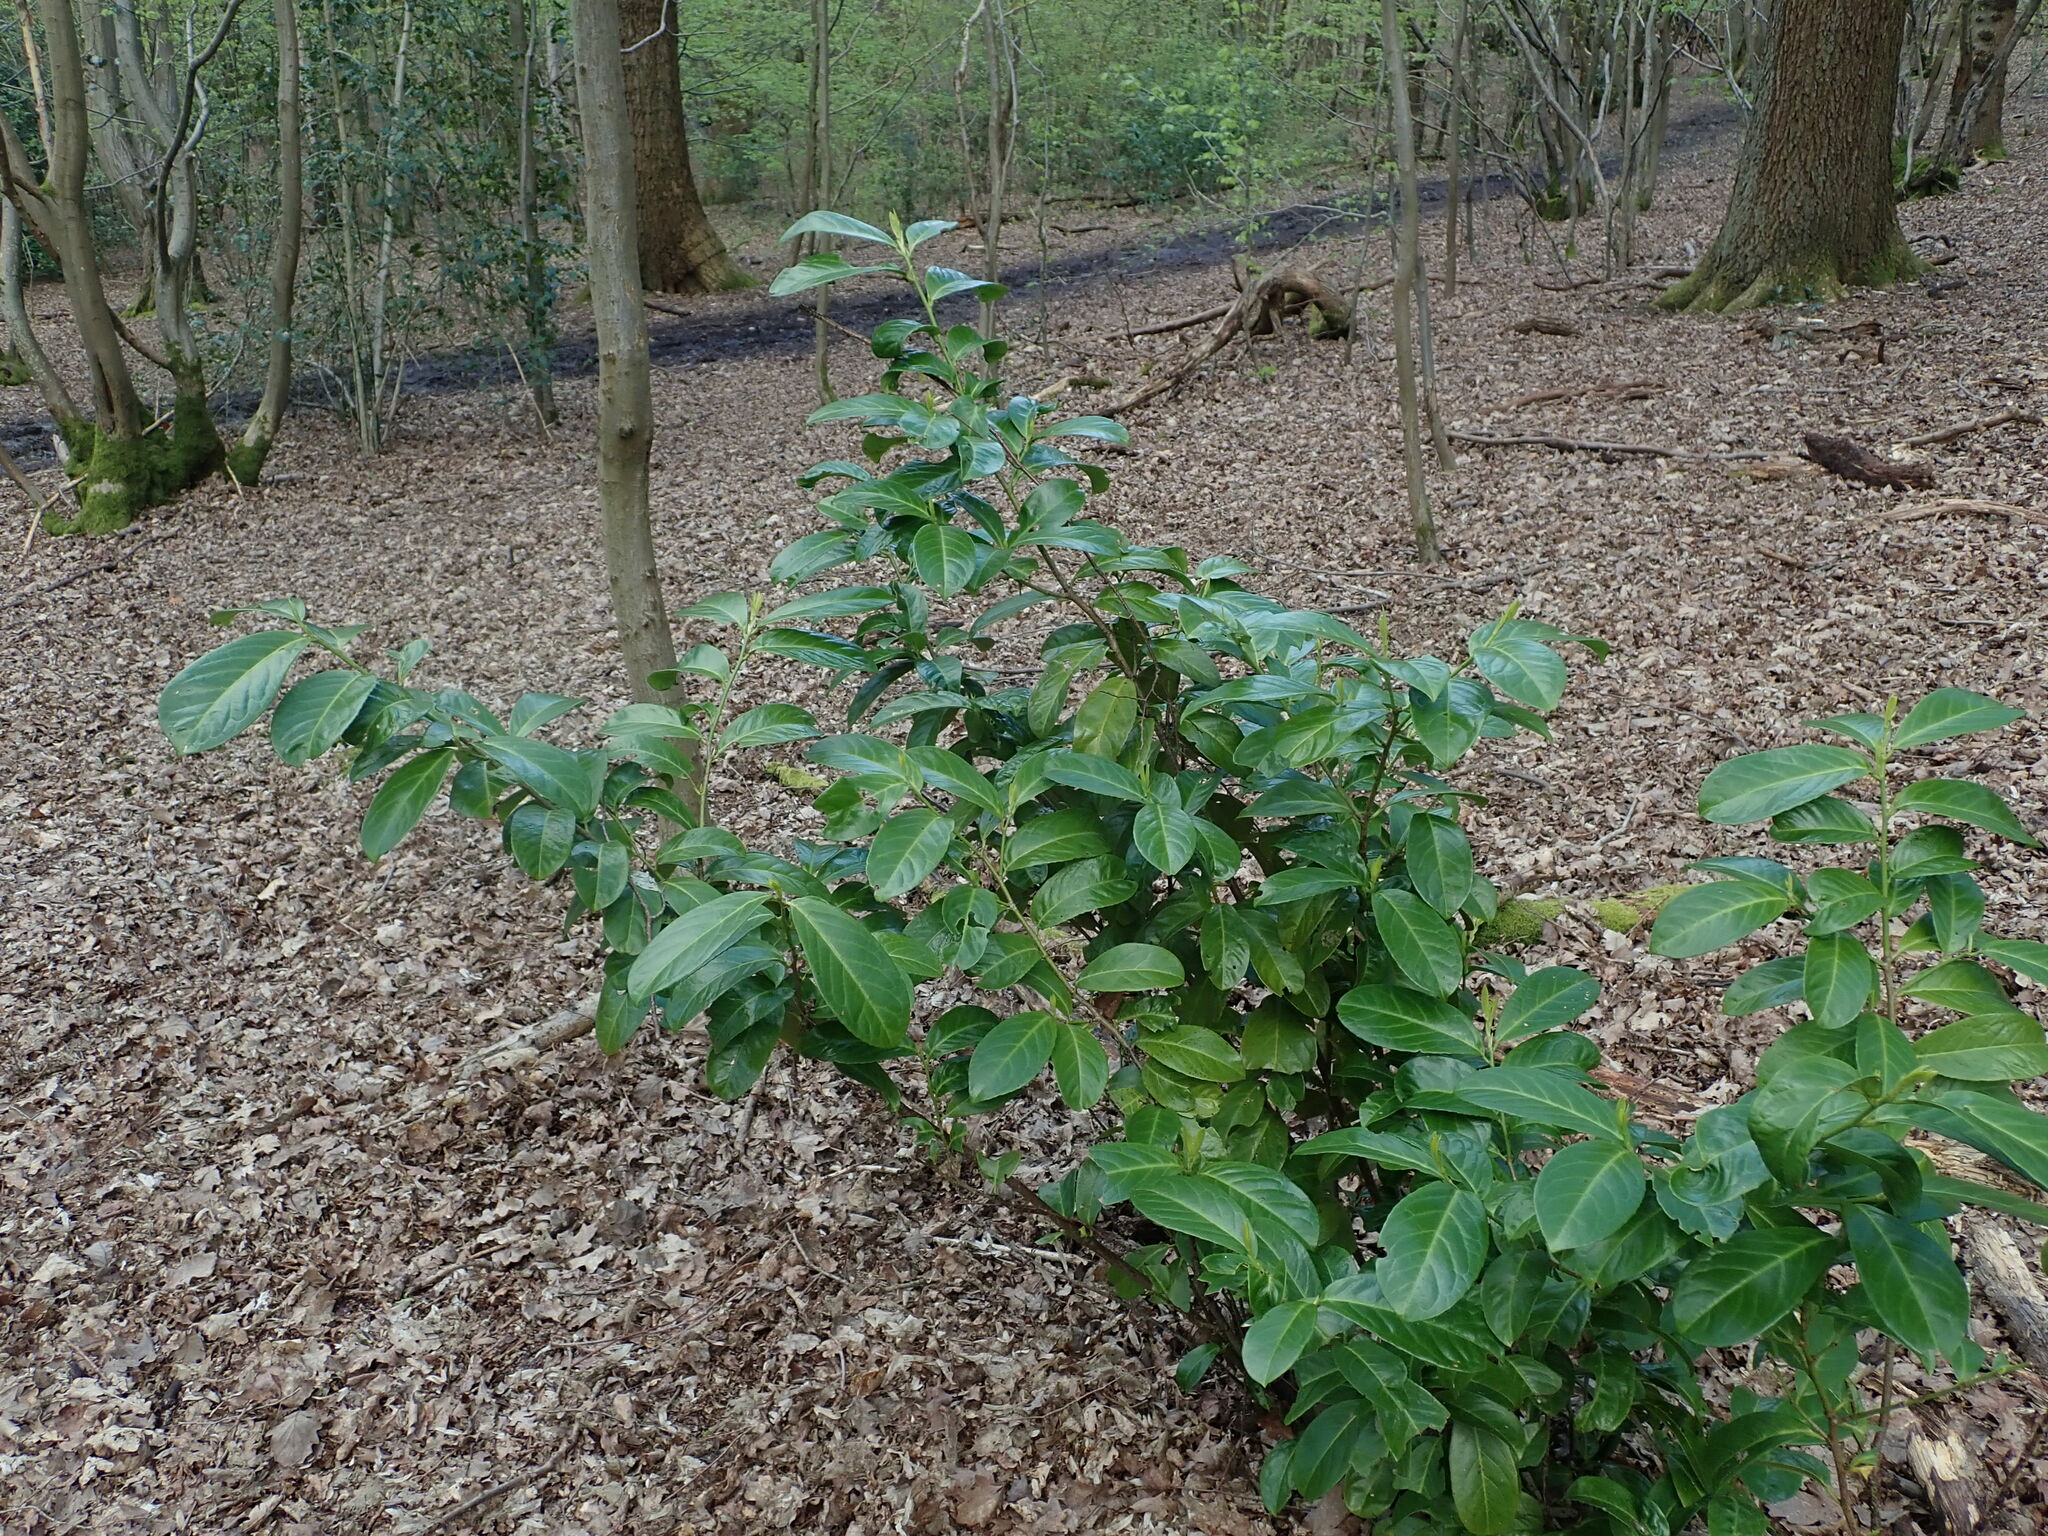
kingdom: Plantae
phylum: Tracheophyta
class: Magnoliopsida
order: Rosales
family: Rosaceae
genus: Prunus
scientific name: Prunus laurocerasus
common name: Cherry laurel
